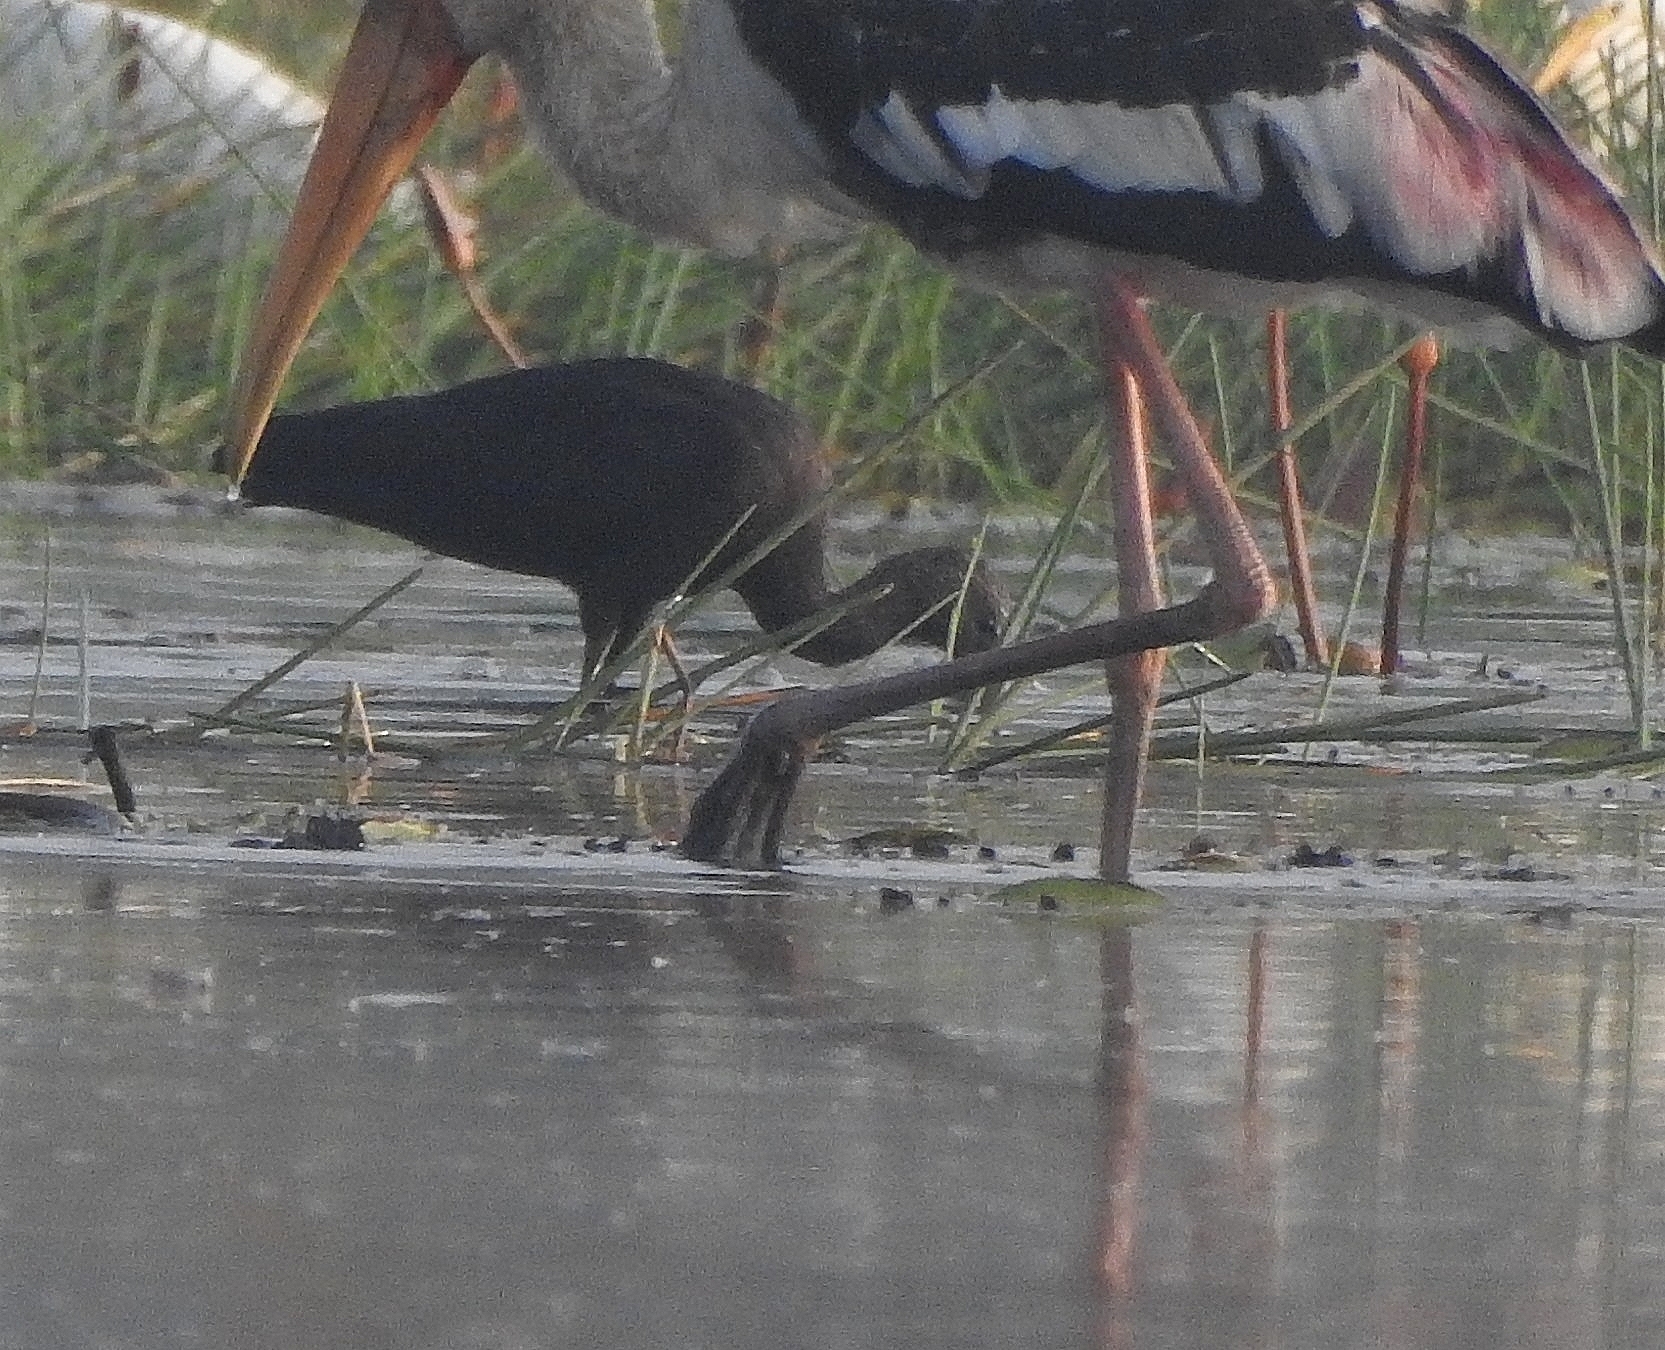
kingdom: Animalia
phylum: Chordata
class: Aves
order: Pelecaniformes
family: Threskiornithidae
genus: Plegadis
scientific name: Plegadis falcinellus
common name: Glossy ibis
